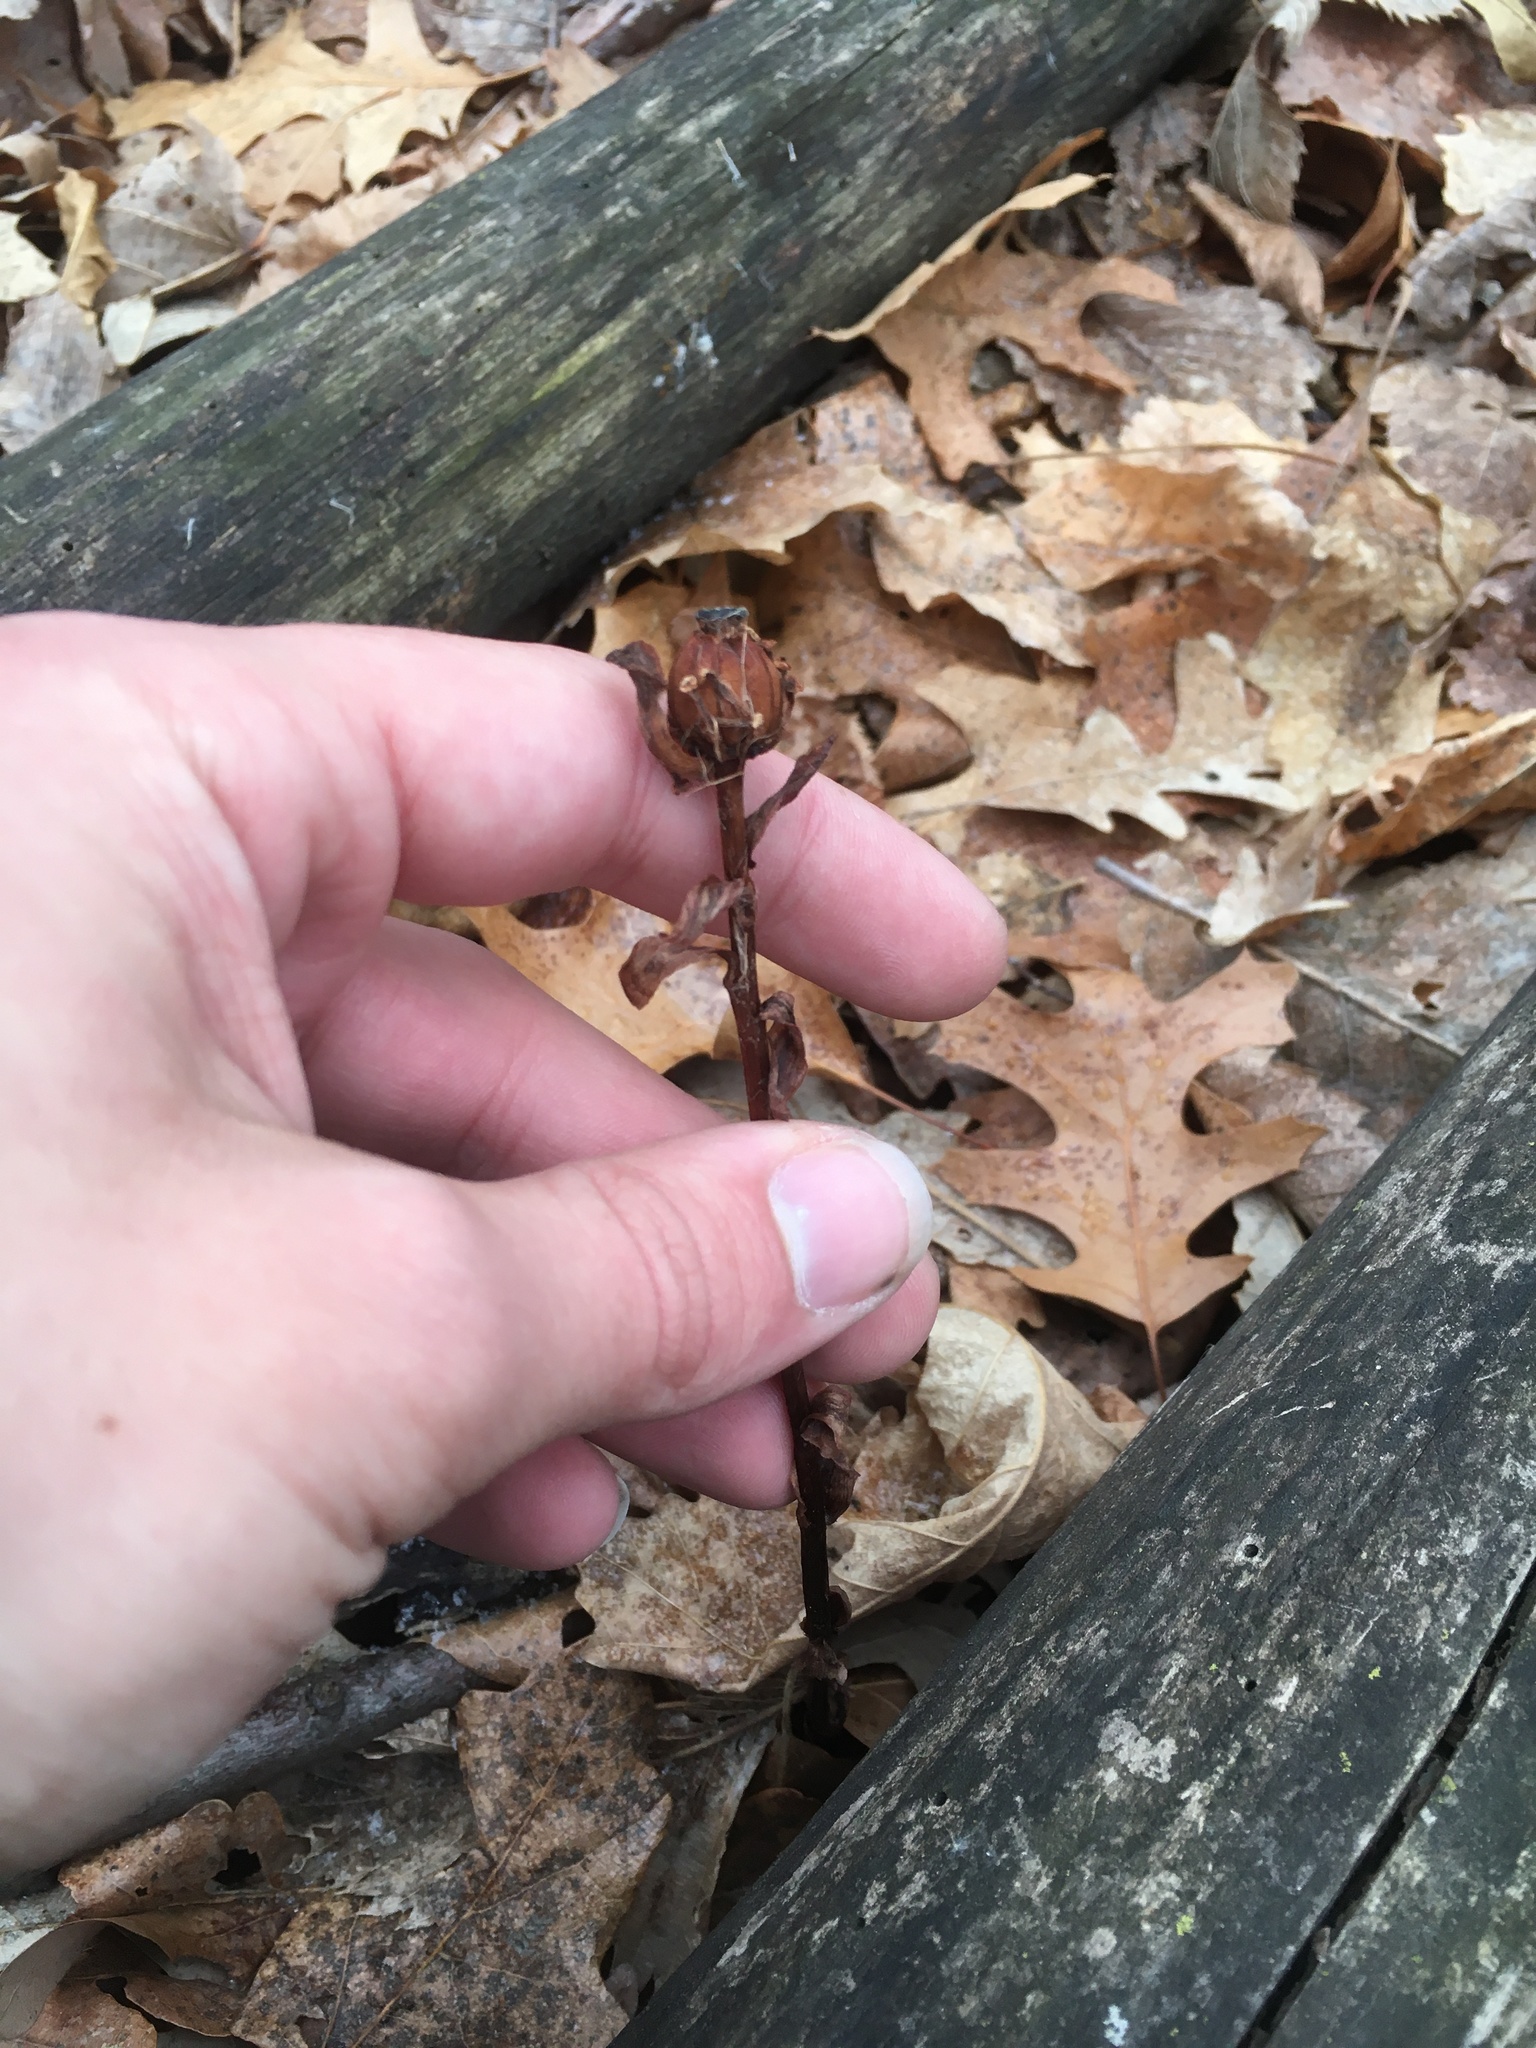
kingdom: Plantae
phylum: Tracheophyta
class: Magnoliopsida
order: Ericales
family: Ericaceae
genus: Monotropa
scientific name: Monotropa uniflora
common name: Convulsion root
